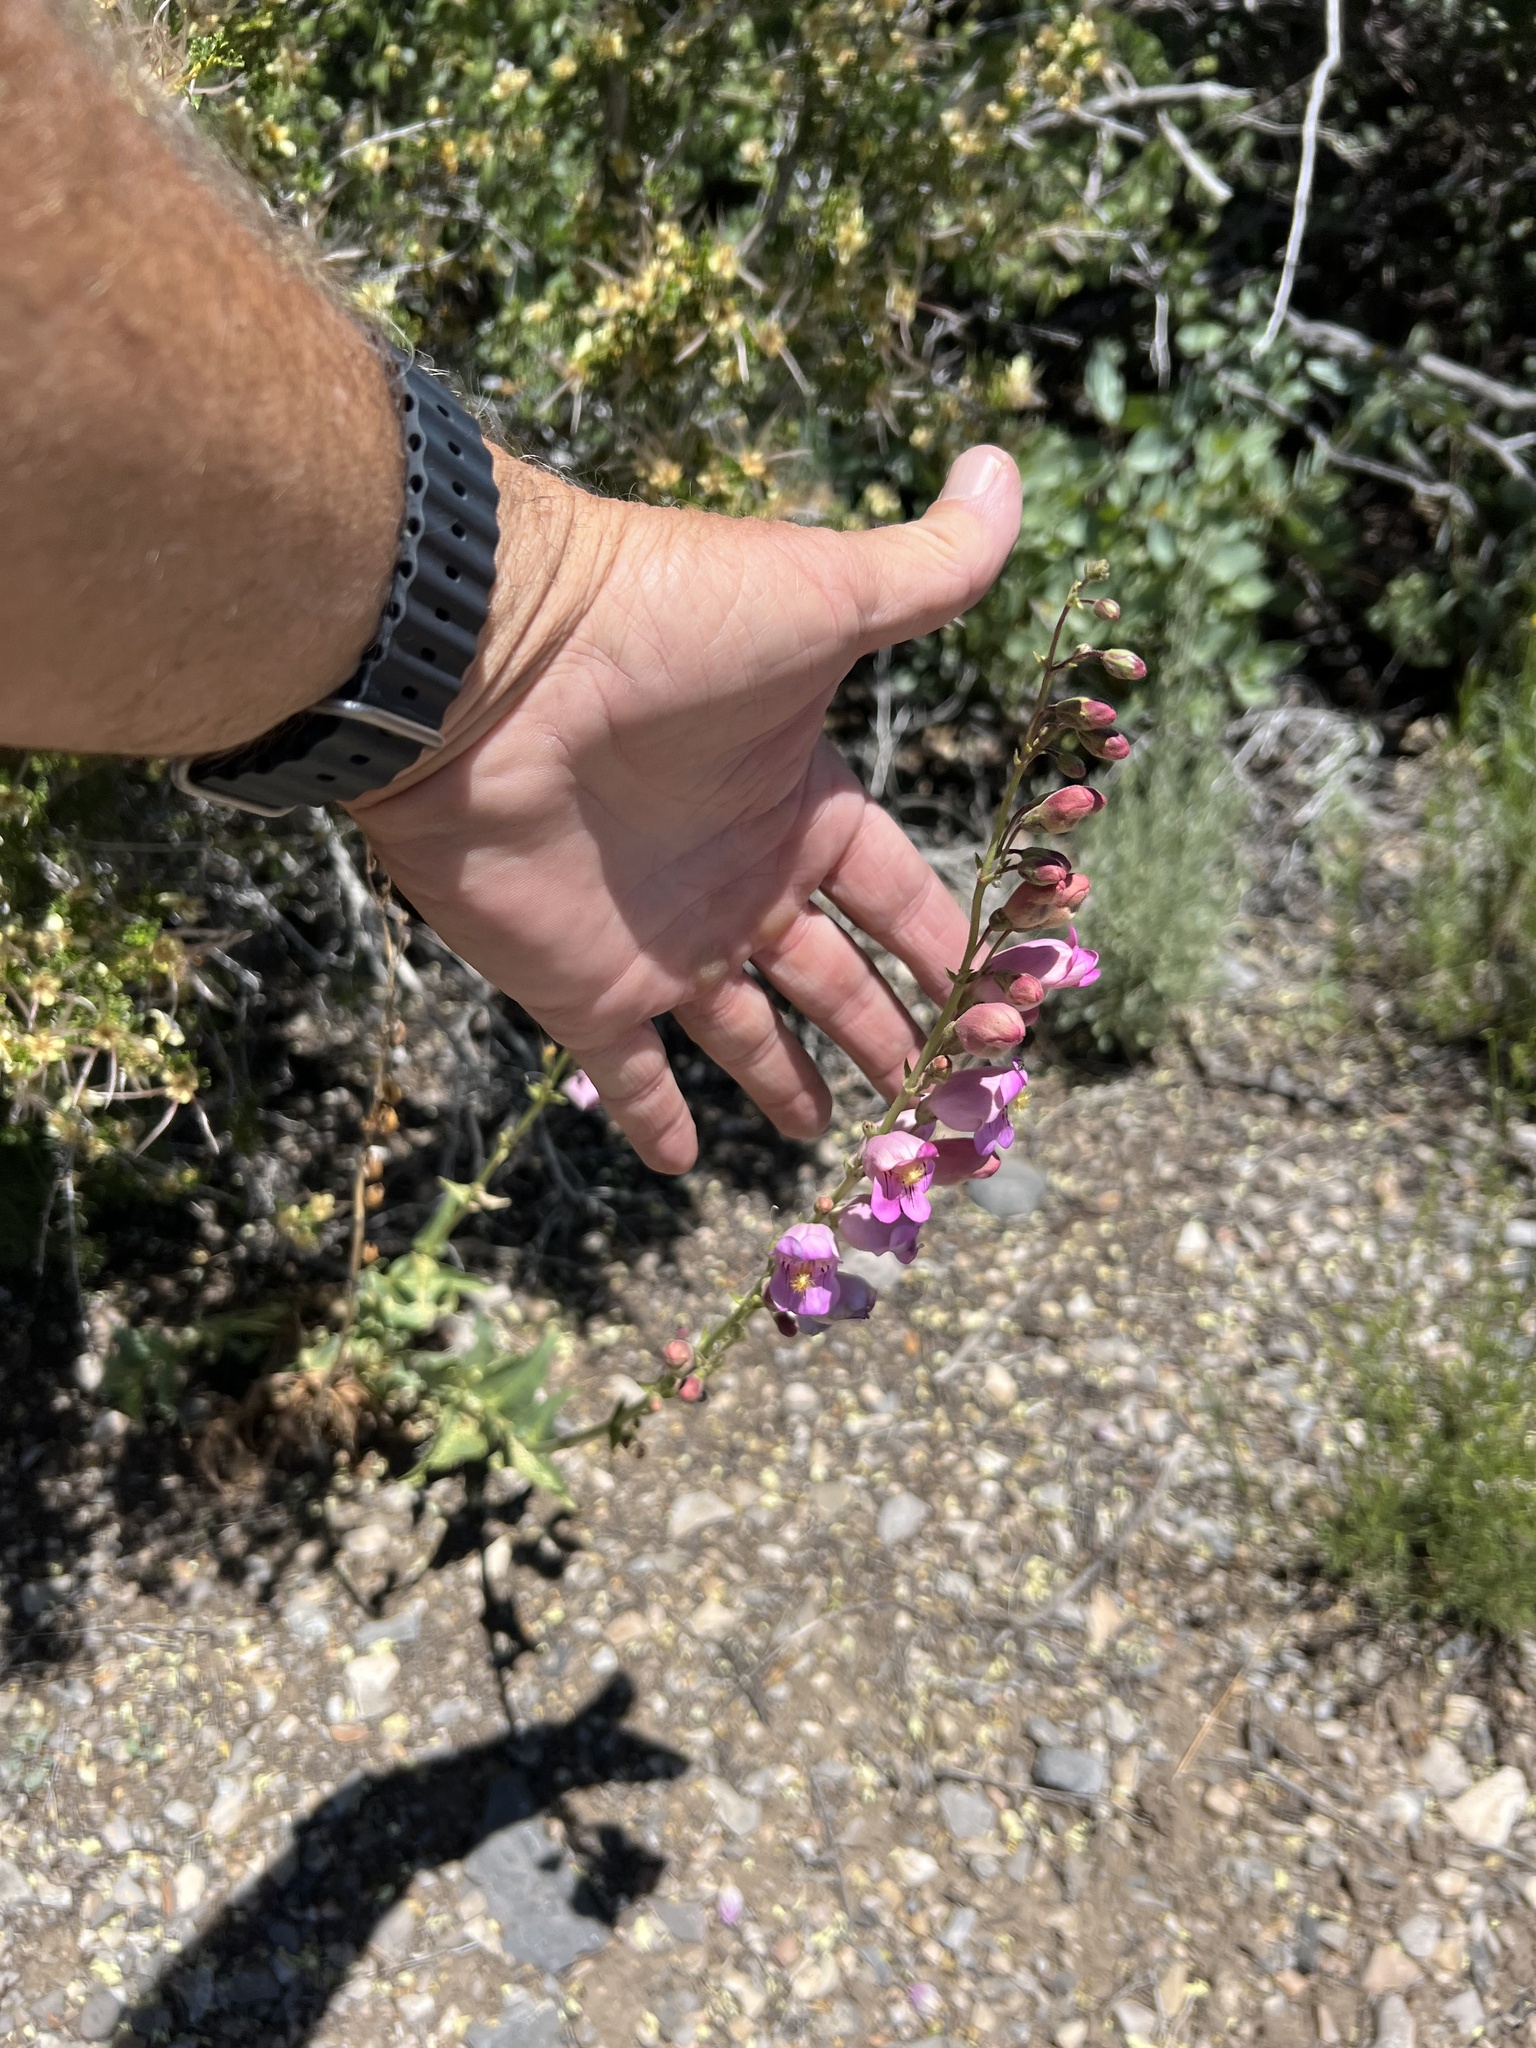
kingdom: Plantae
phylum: Tracheophyta
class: Magnoliopsida
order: Lamiales
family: Plantaginaceae
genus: Penstemon
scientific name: Penstemon palmeri
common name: Palmer penstemon
